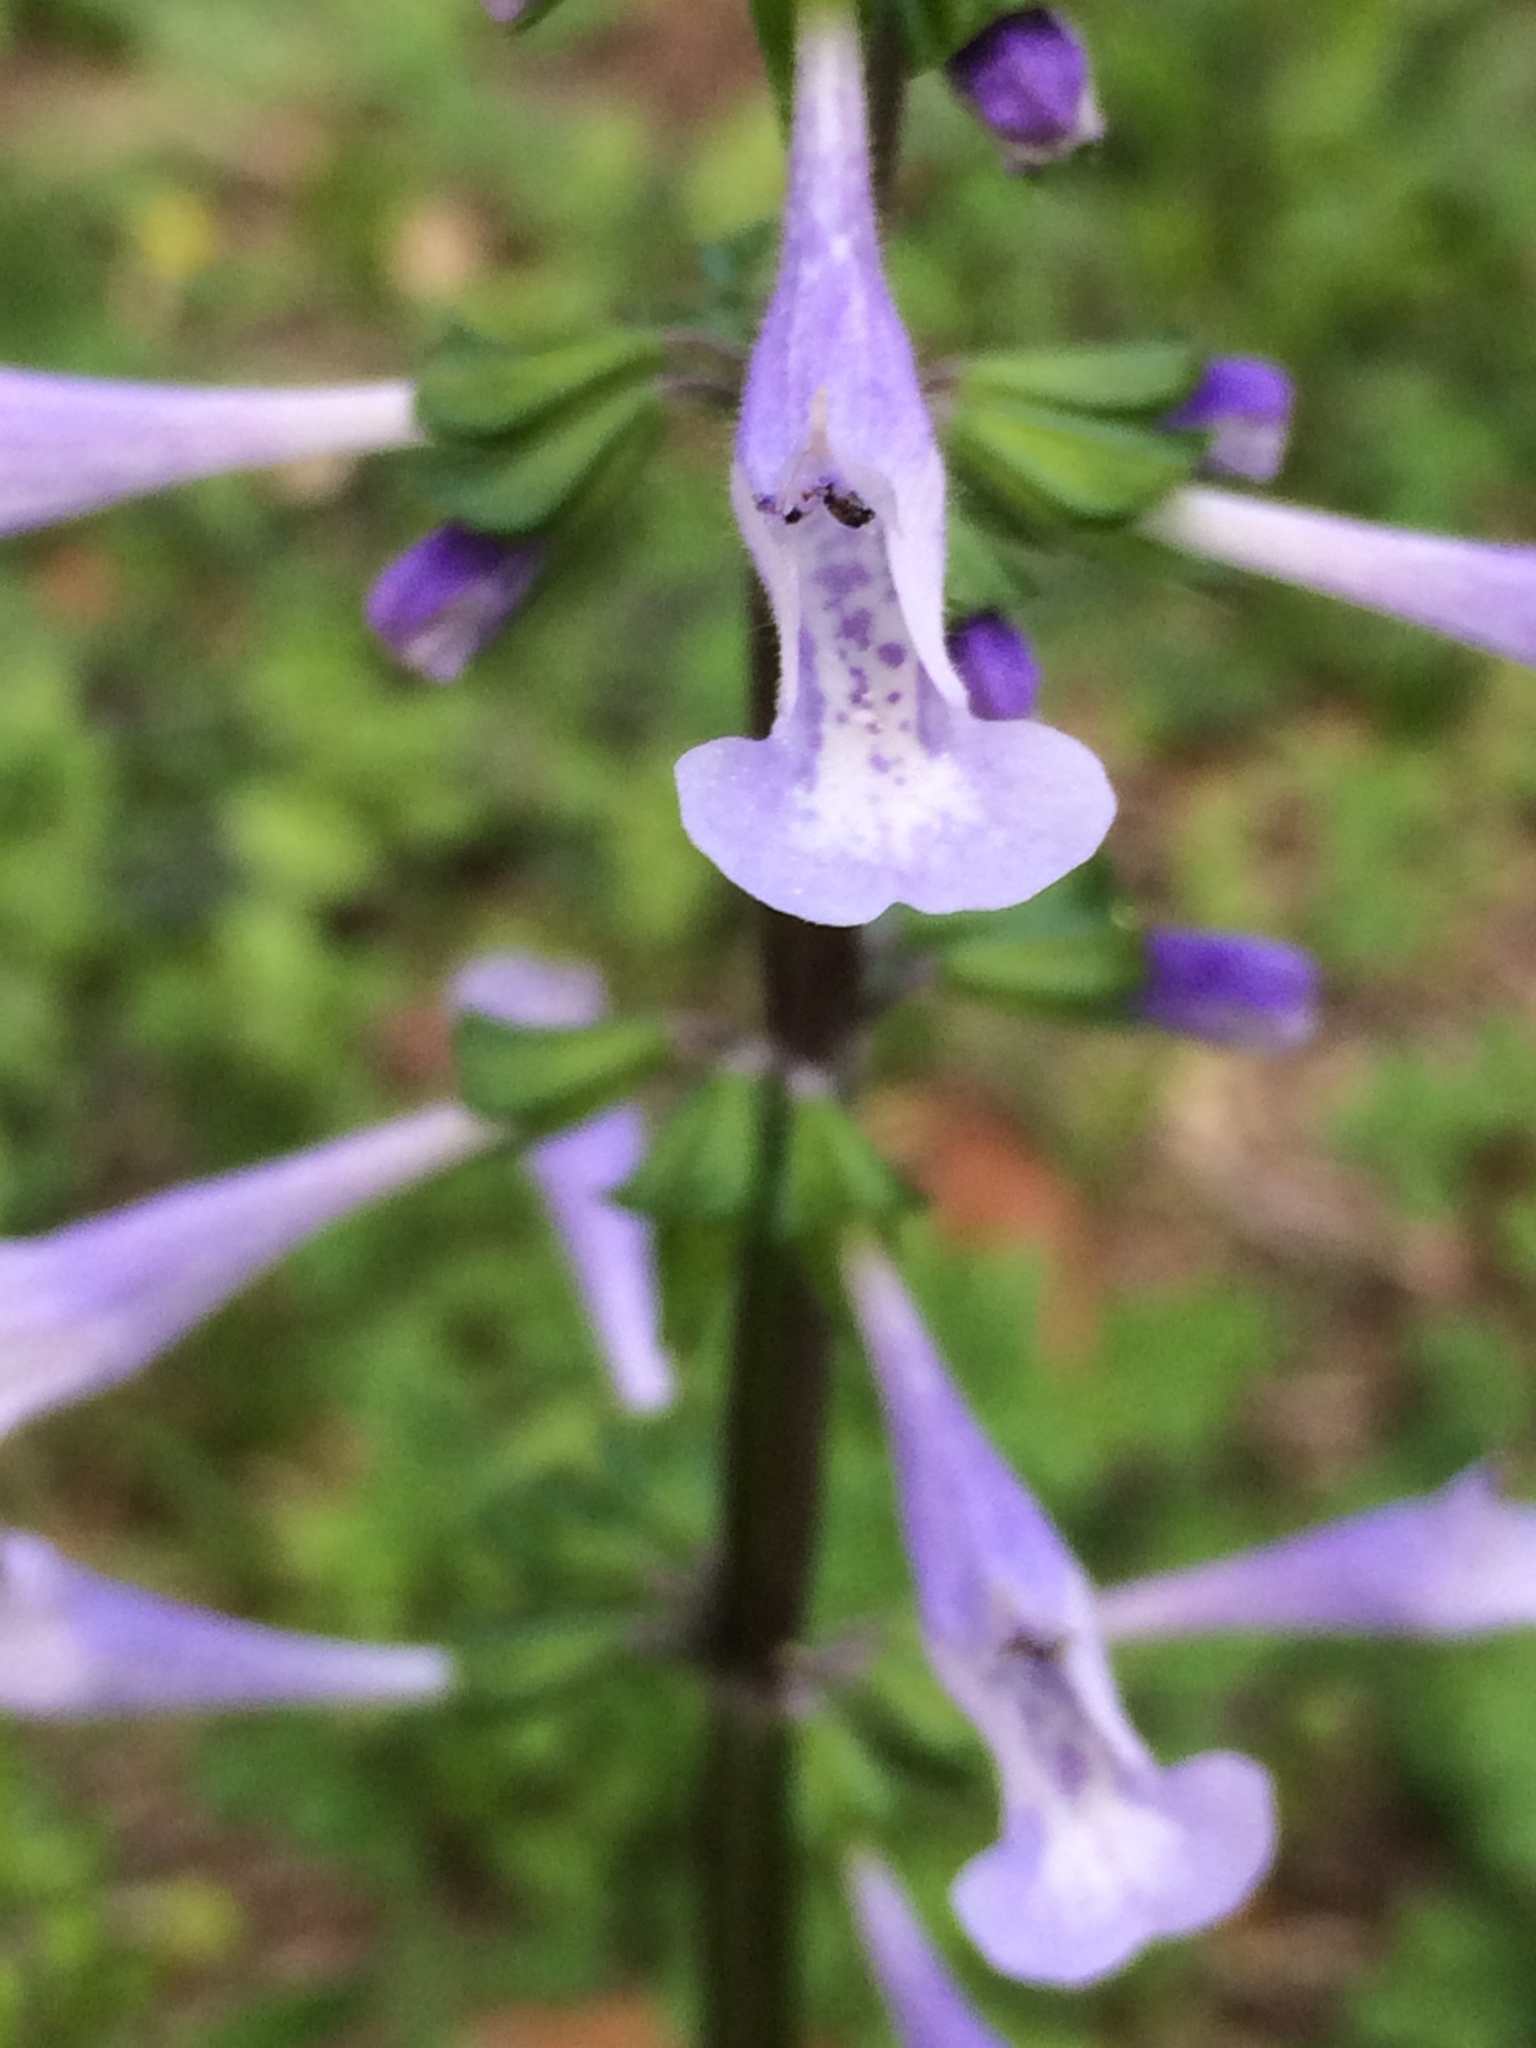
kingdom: Plantae
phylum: Tracheophyta
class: Magnoliopsida
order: Lamiales
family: Lamiaceae
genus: Salvia
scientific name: Salvia lyrata
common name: Cancerweed
